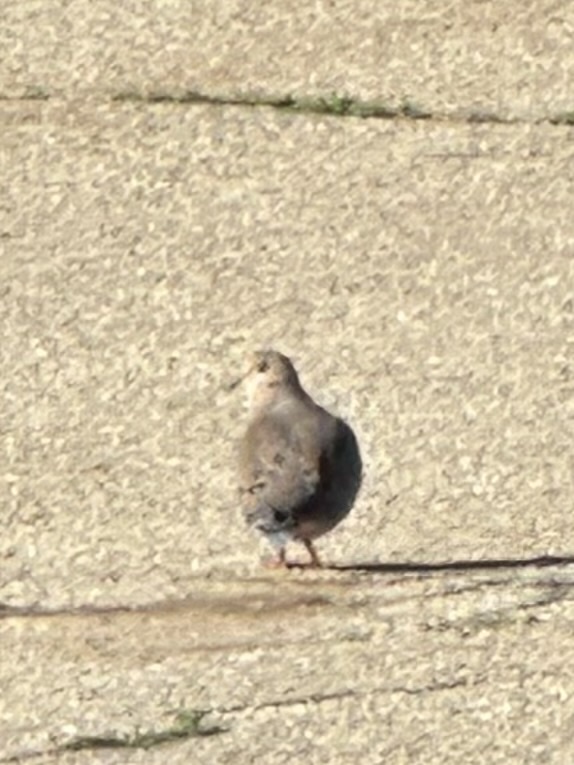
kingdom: Animalia
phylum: Chordata
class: Aves
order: Columbiformes
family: Columbidae
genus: Zenaida
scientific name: Zenaida macroura
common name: Mourning dove
